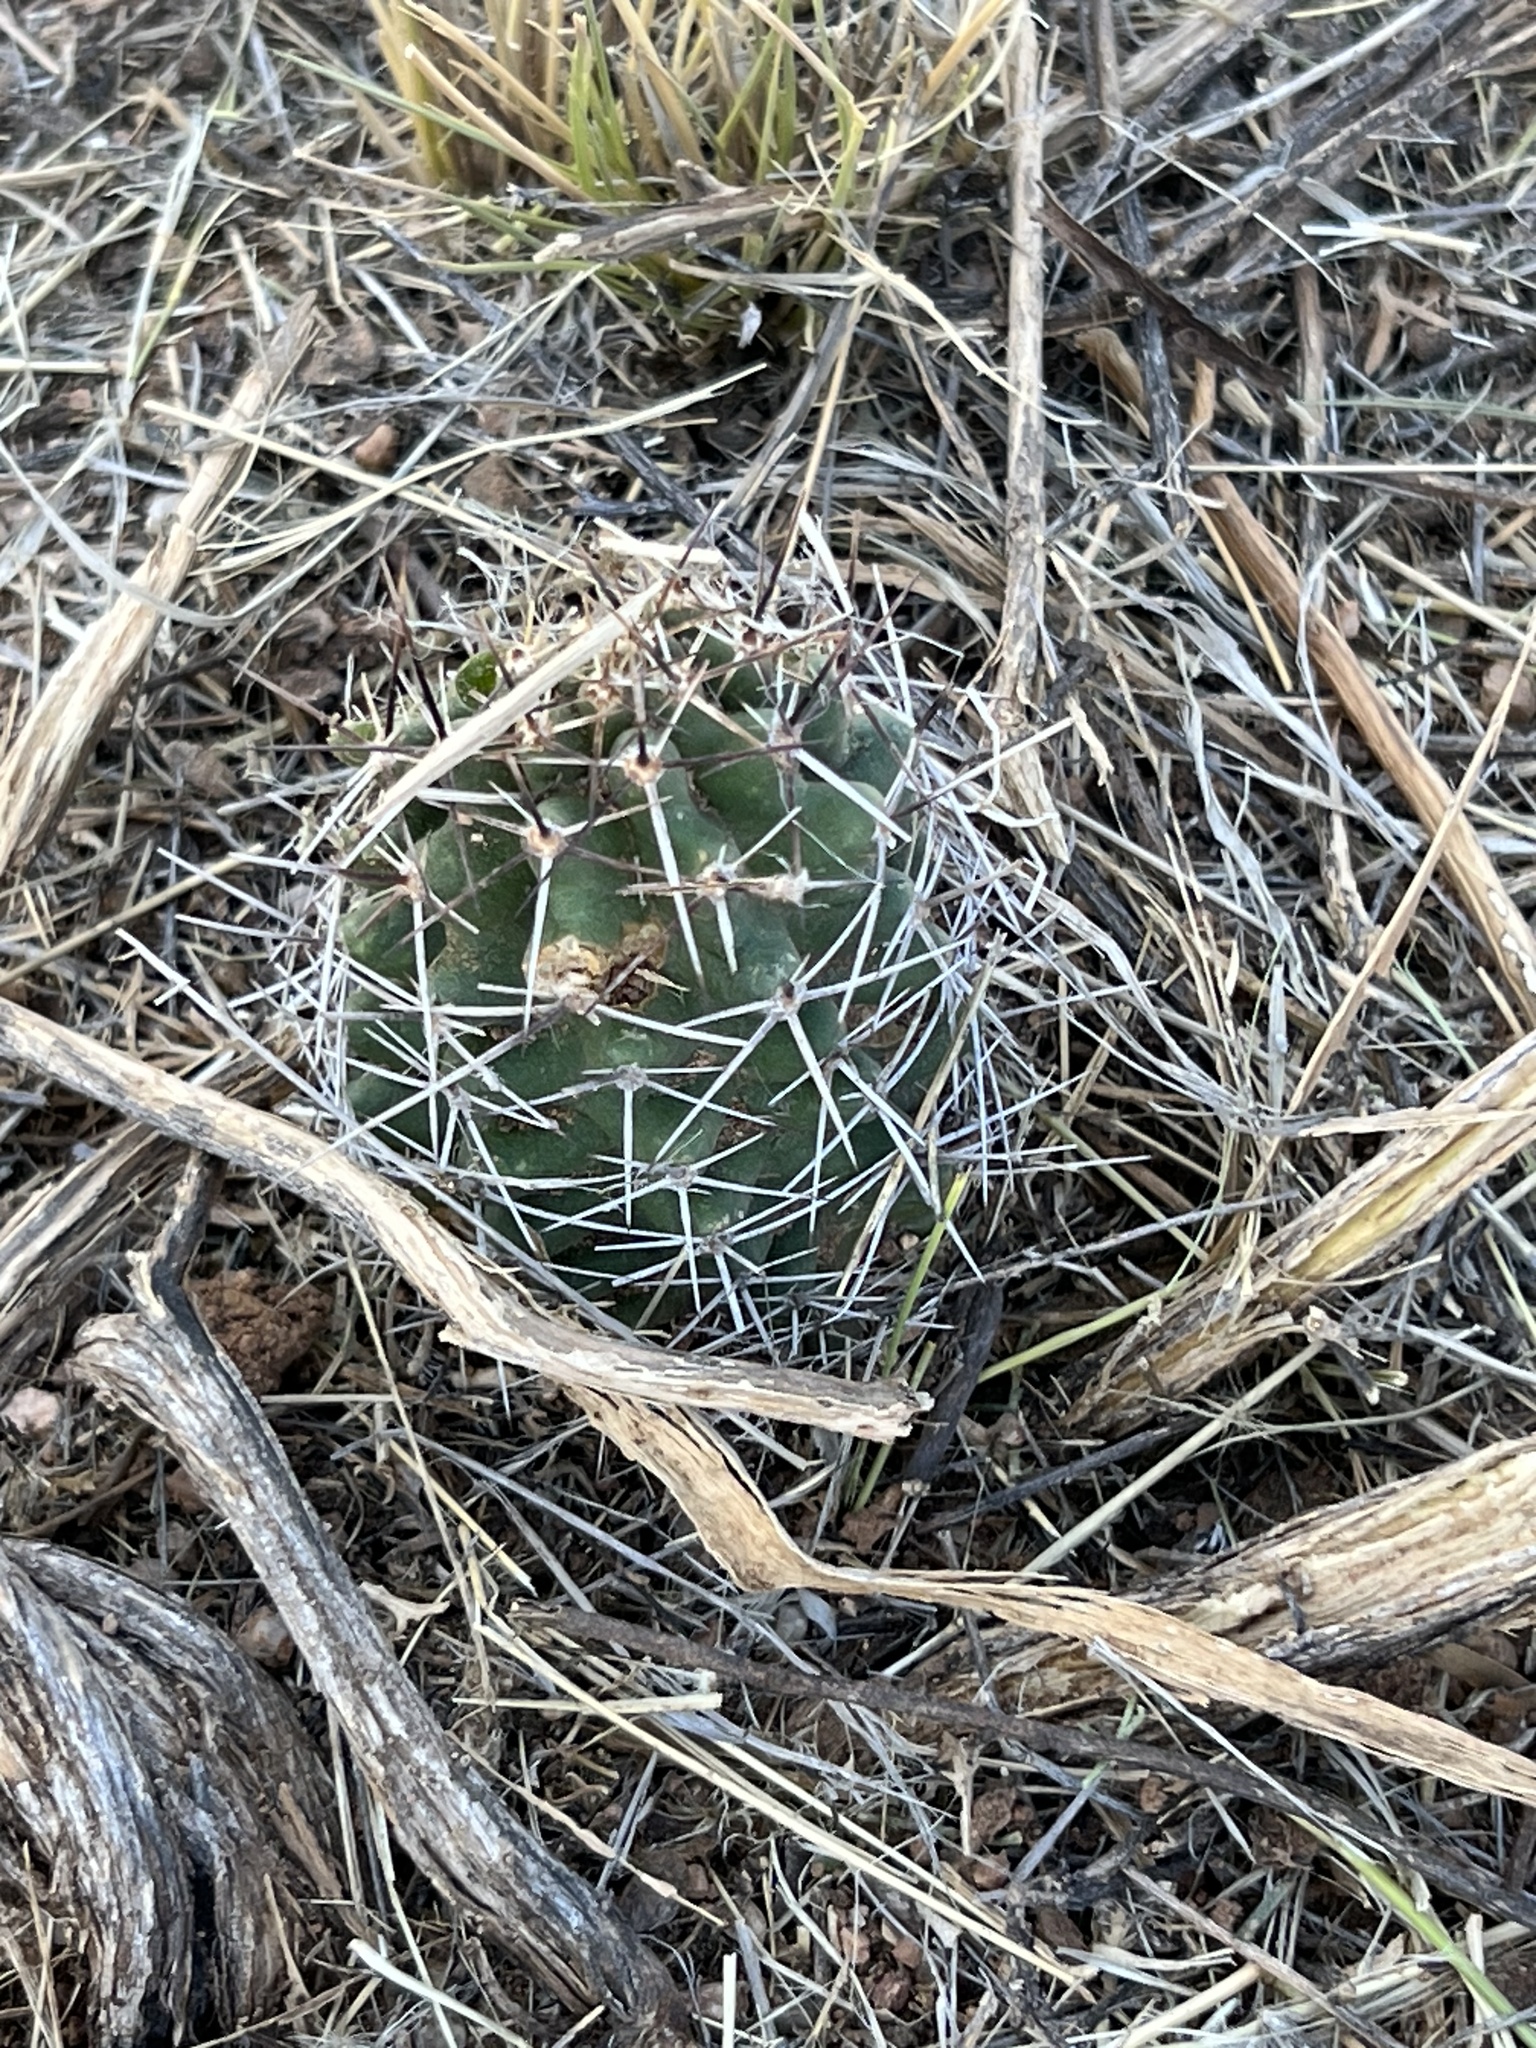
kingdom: Plantae
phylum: Tracheophyta
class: Magnoliopsida
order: Caryophyllales
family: Cactaceae
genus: Echinocereus
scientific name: Echinocereus fendleri
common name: Fendler's hedgehog cactus
